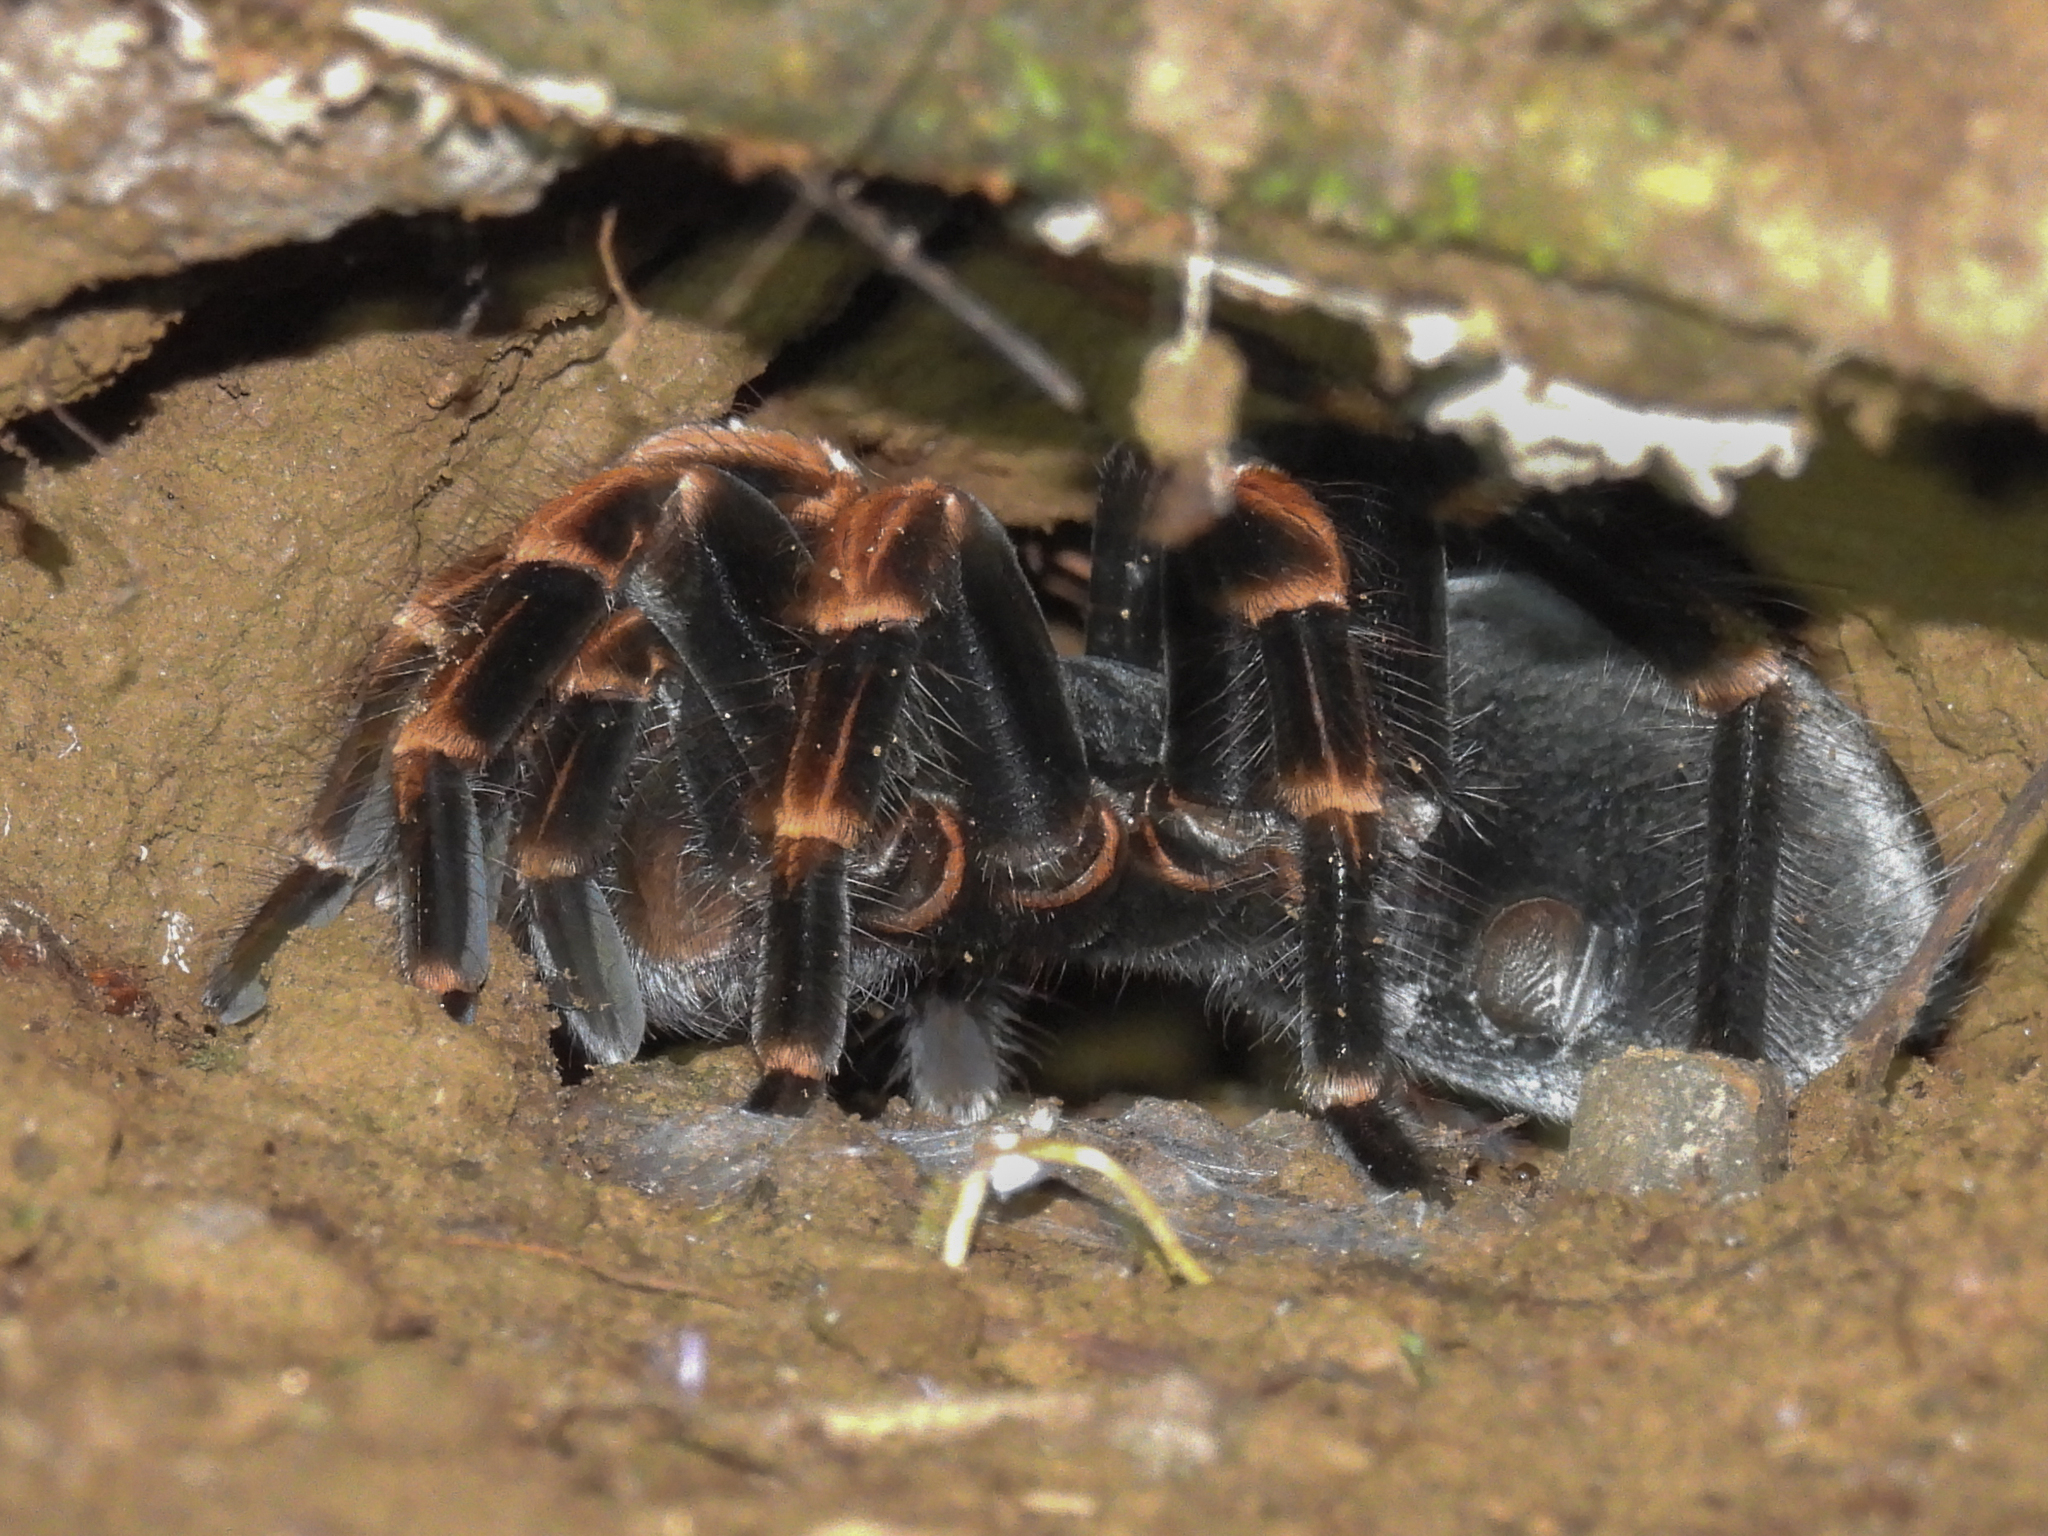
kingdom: Animalia
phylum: Arthropoda
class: Arachnida
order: Araneae
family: Theraphosidae
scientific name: Theraphosidae
